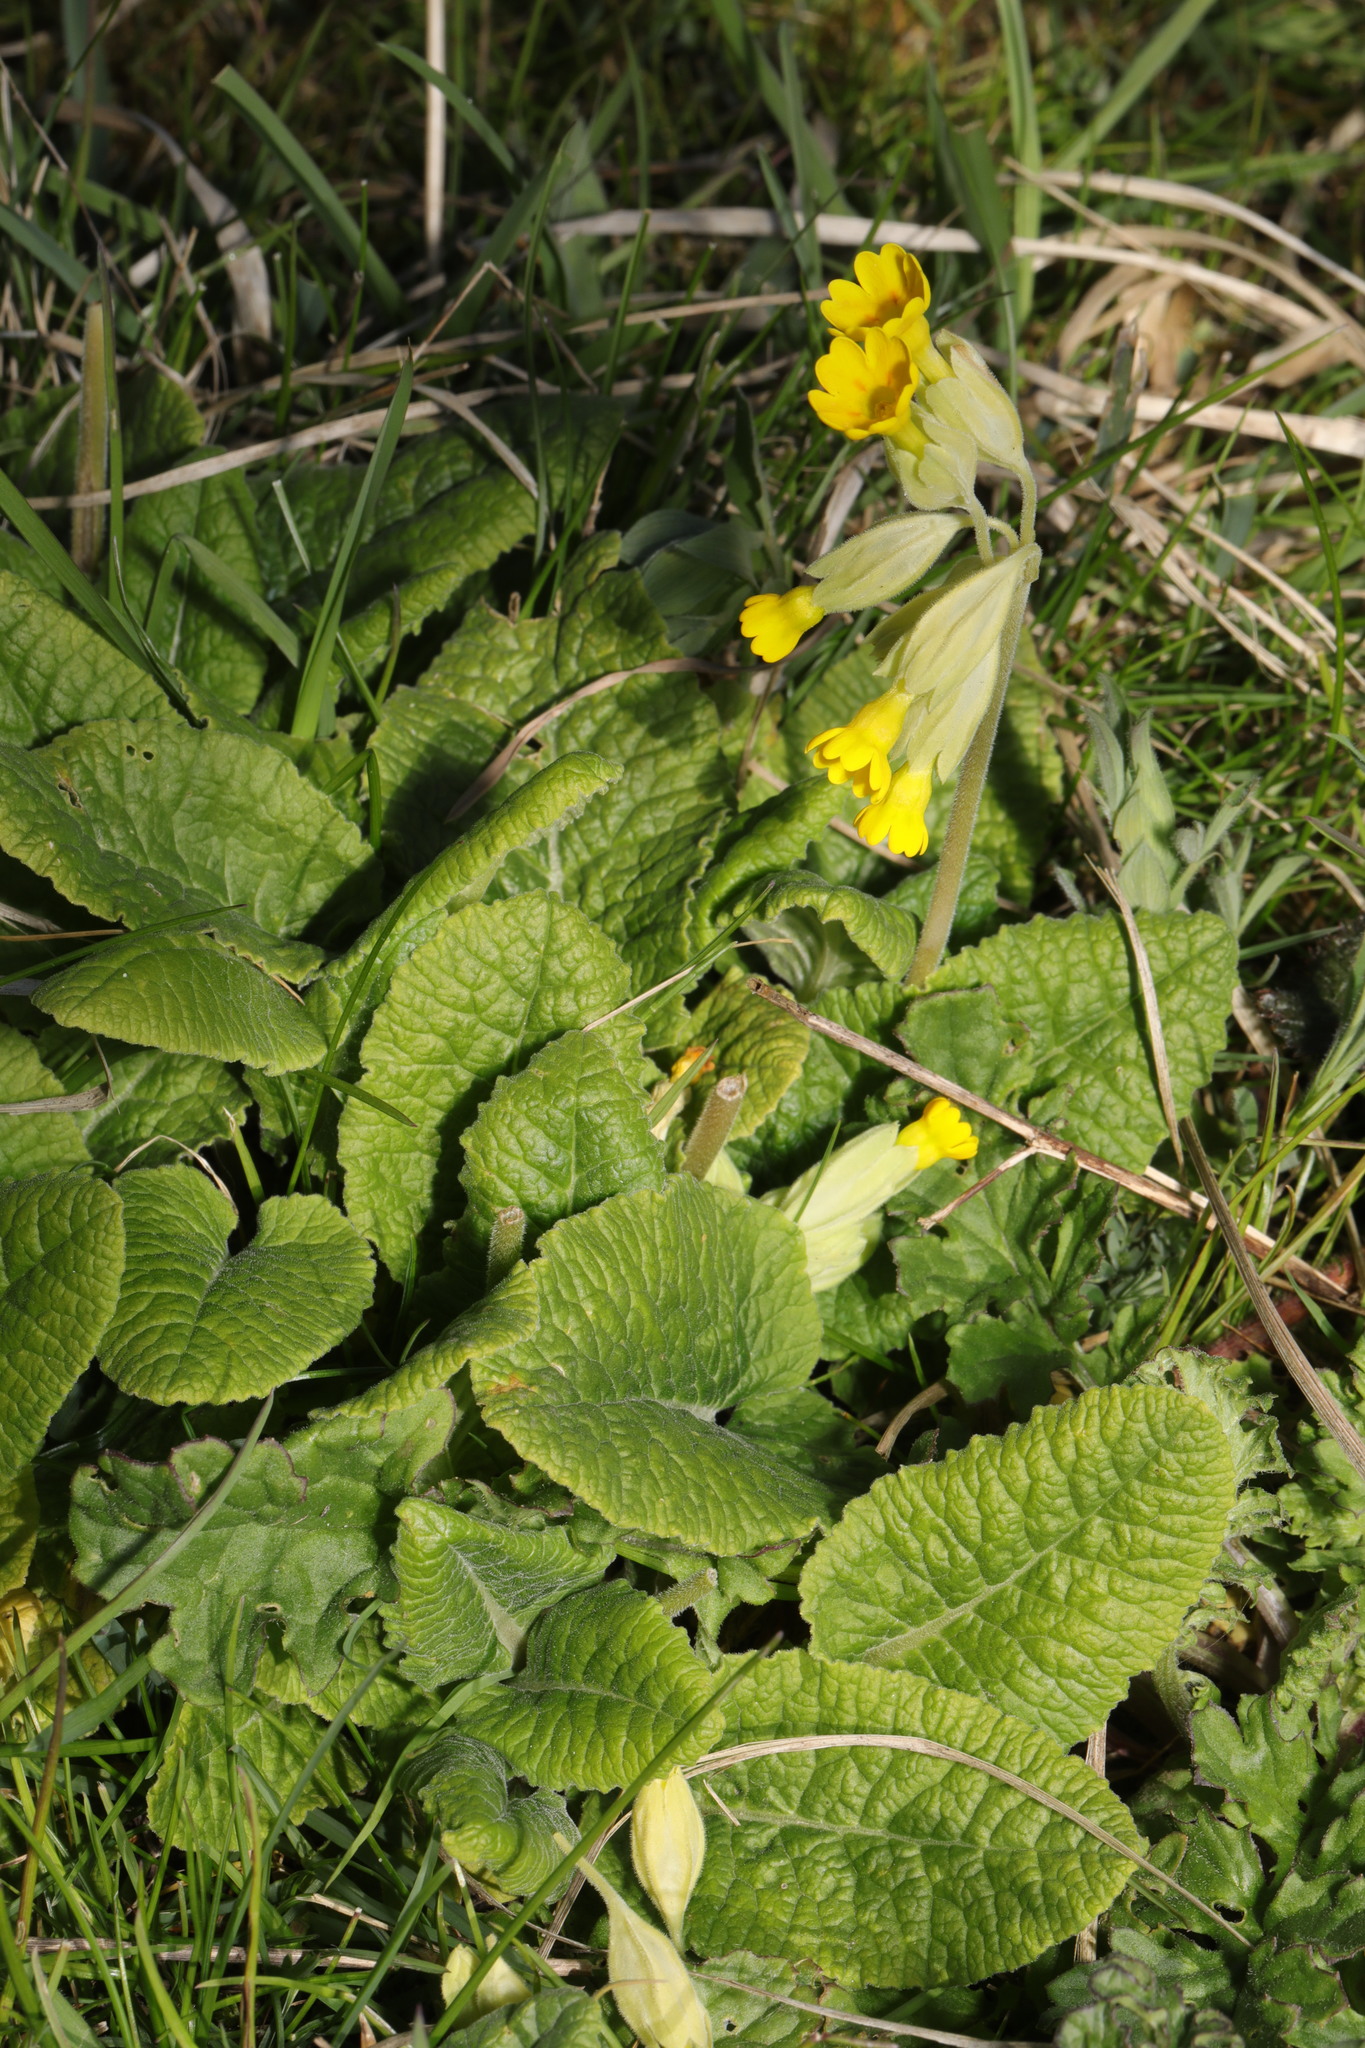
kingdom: Plantae
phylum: Tracheophyta
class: Magnoliopsida
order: Ericales
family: Primulaceae
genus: Primula
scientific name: Primula veris
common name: Cowslip
